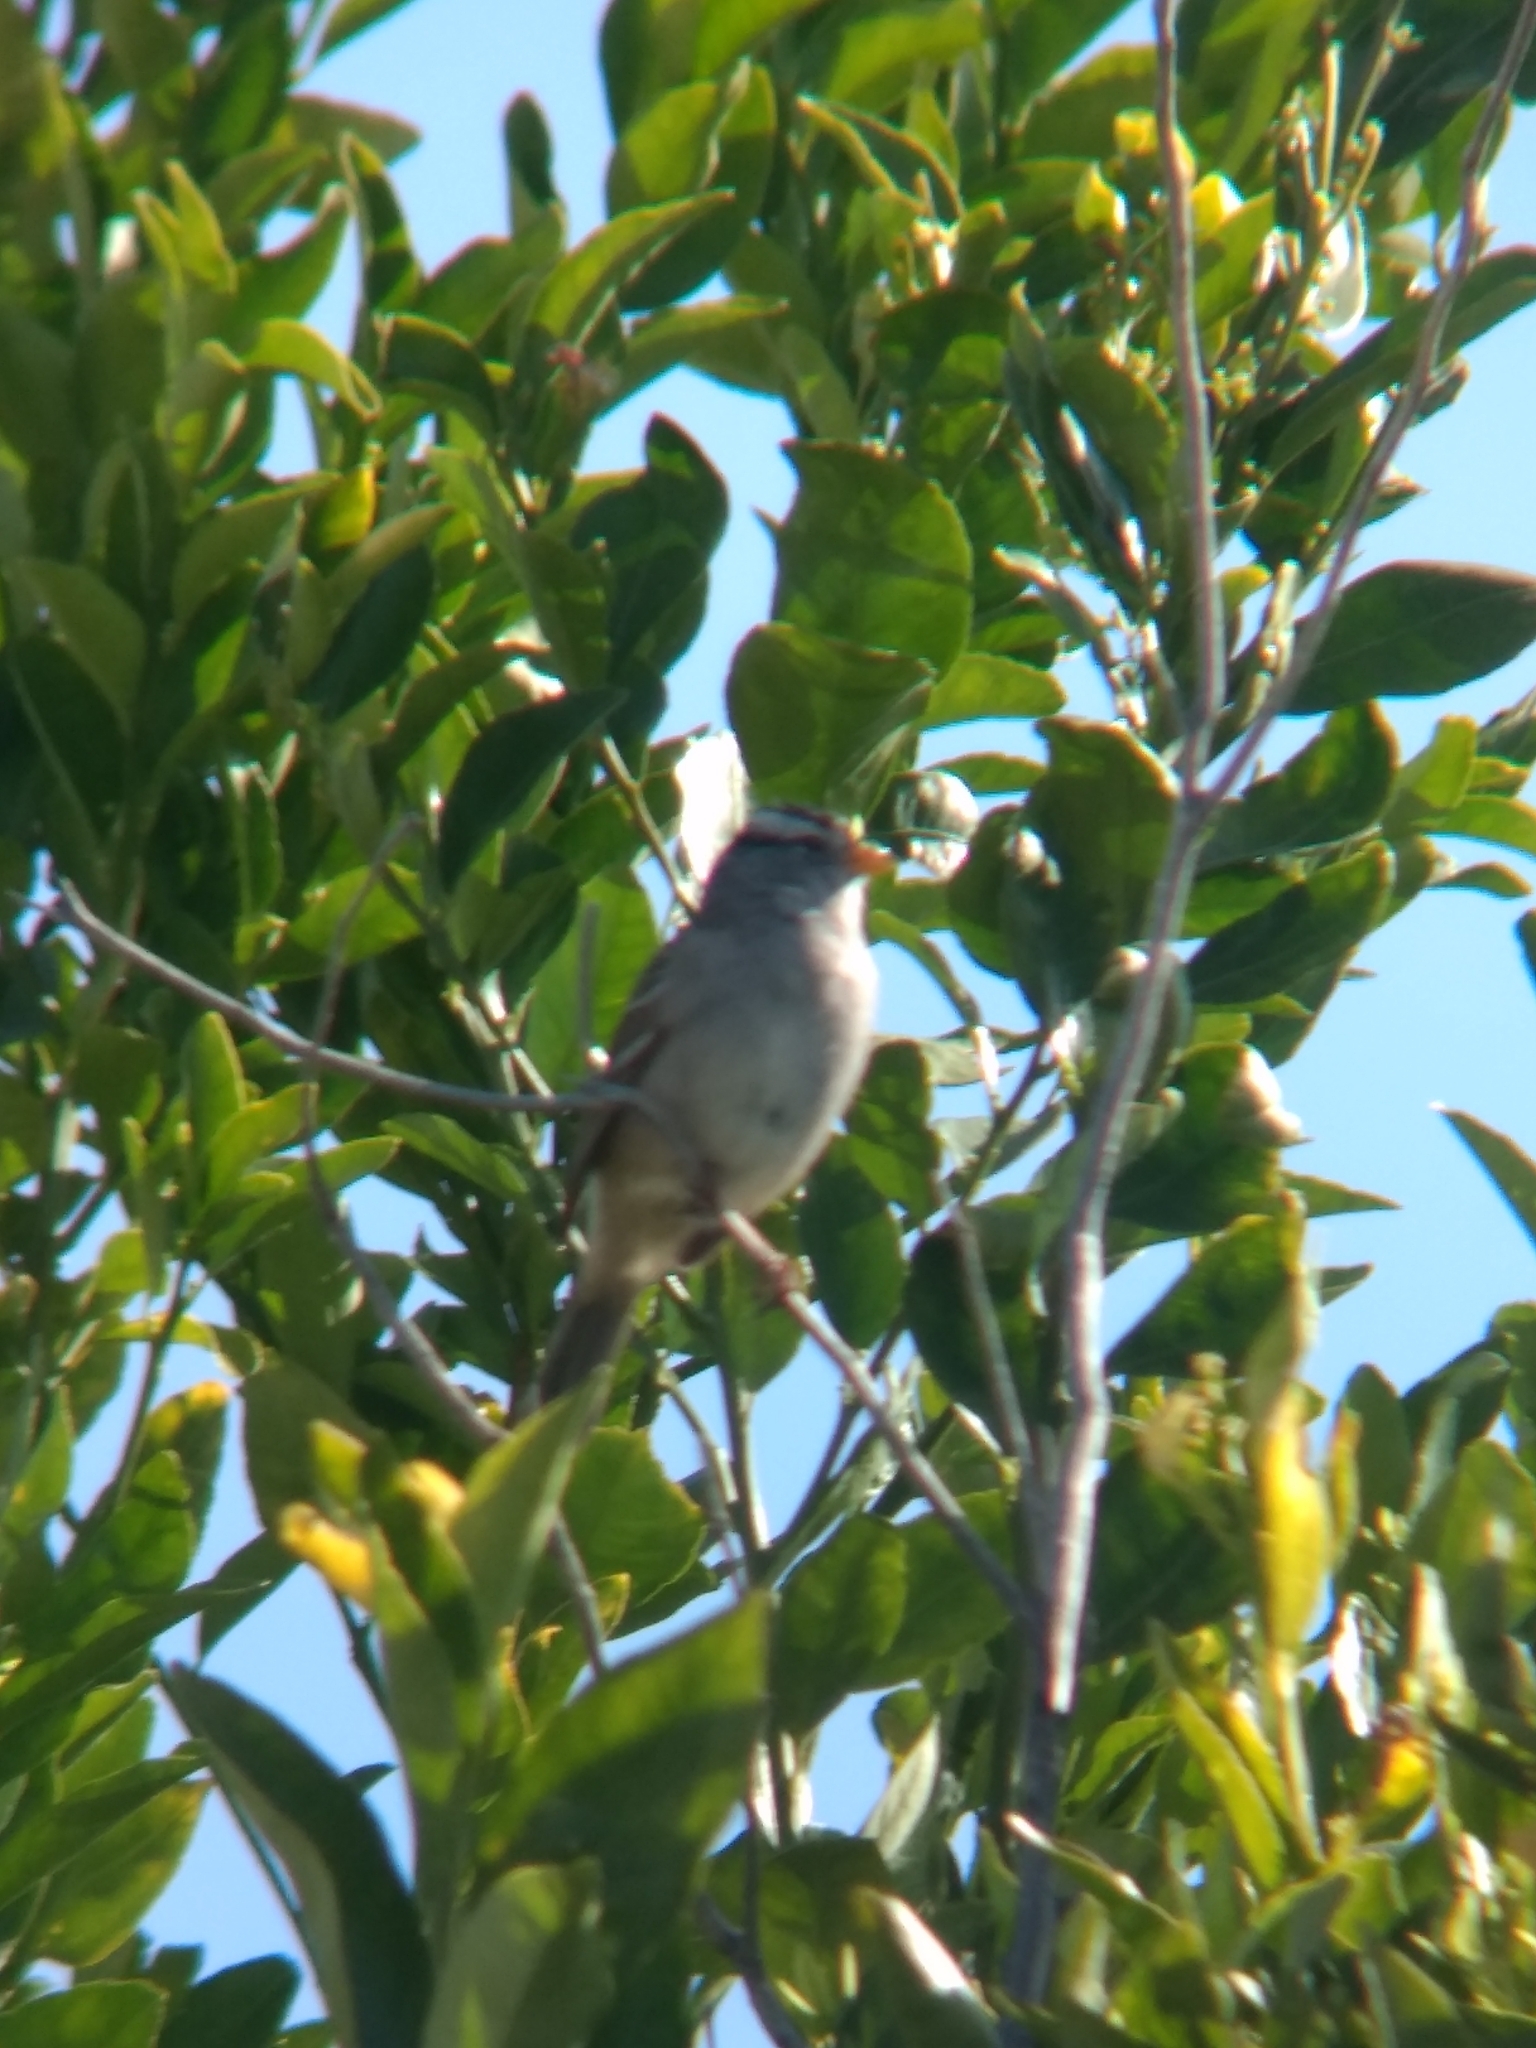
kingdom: Animalia
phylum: Chordata
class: Aves
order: Passeriformes
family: Passerellidae
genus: Zonotrichia
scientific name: Zonotrichia leucophrys
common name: White-crowned sparrow
